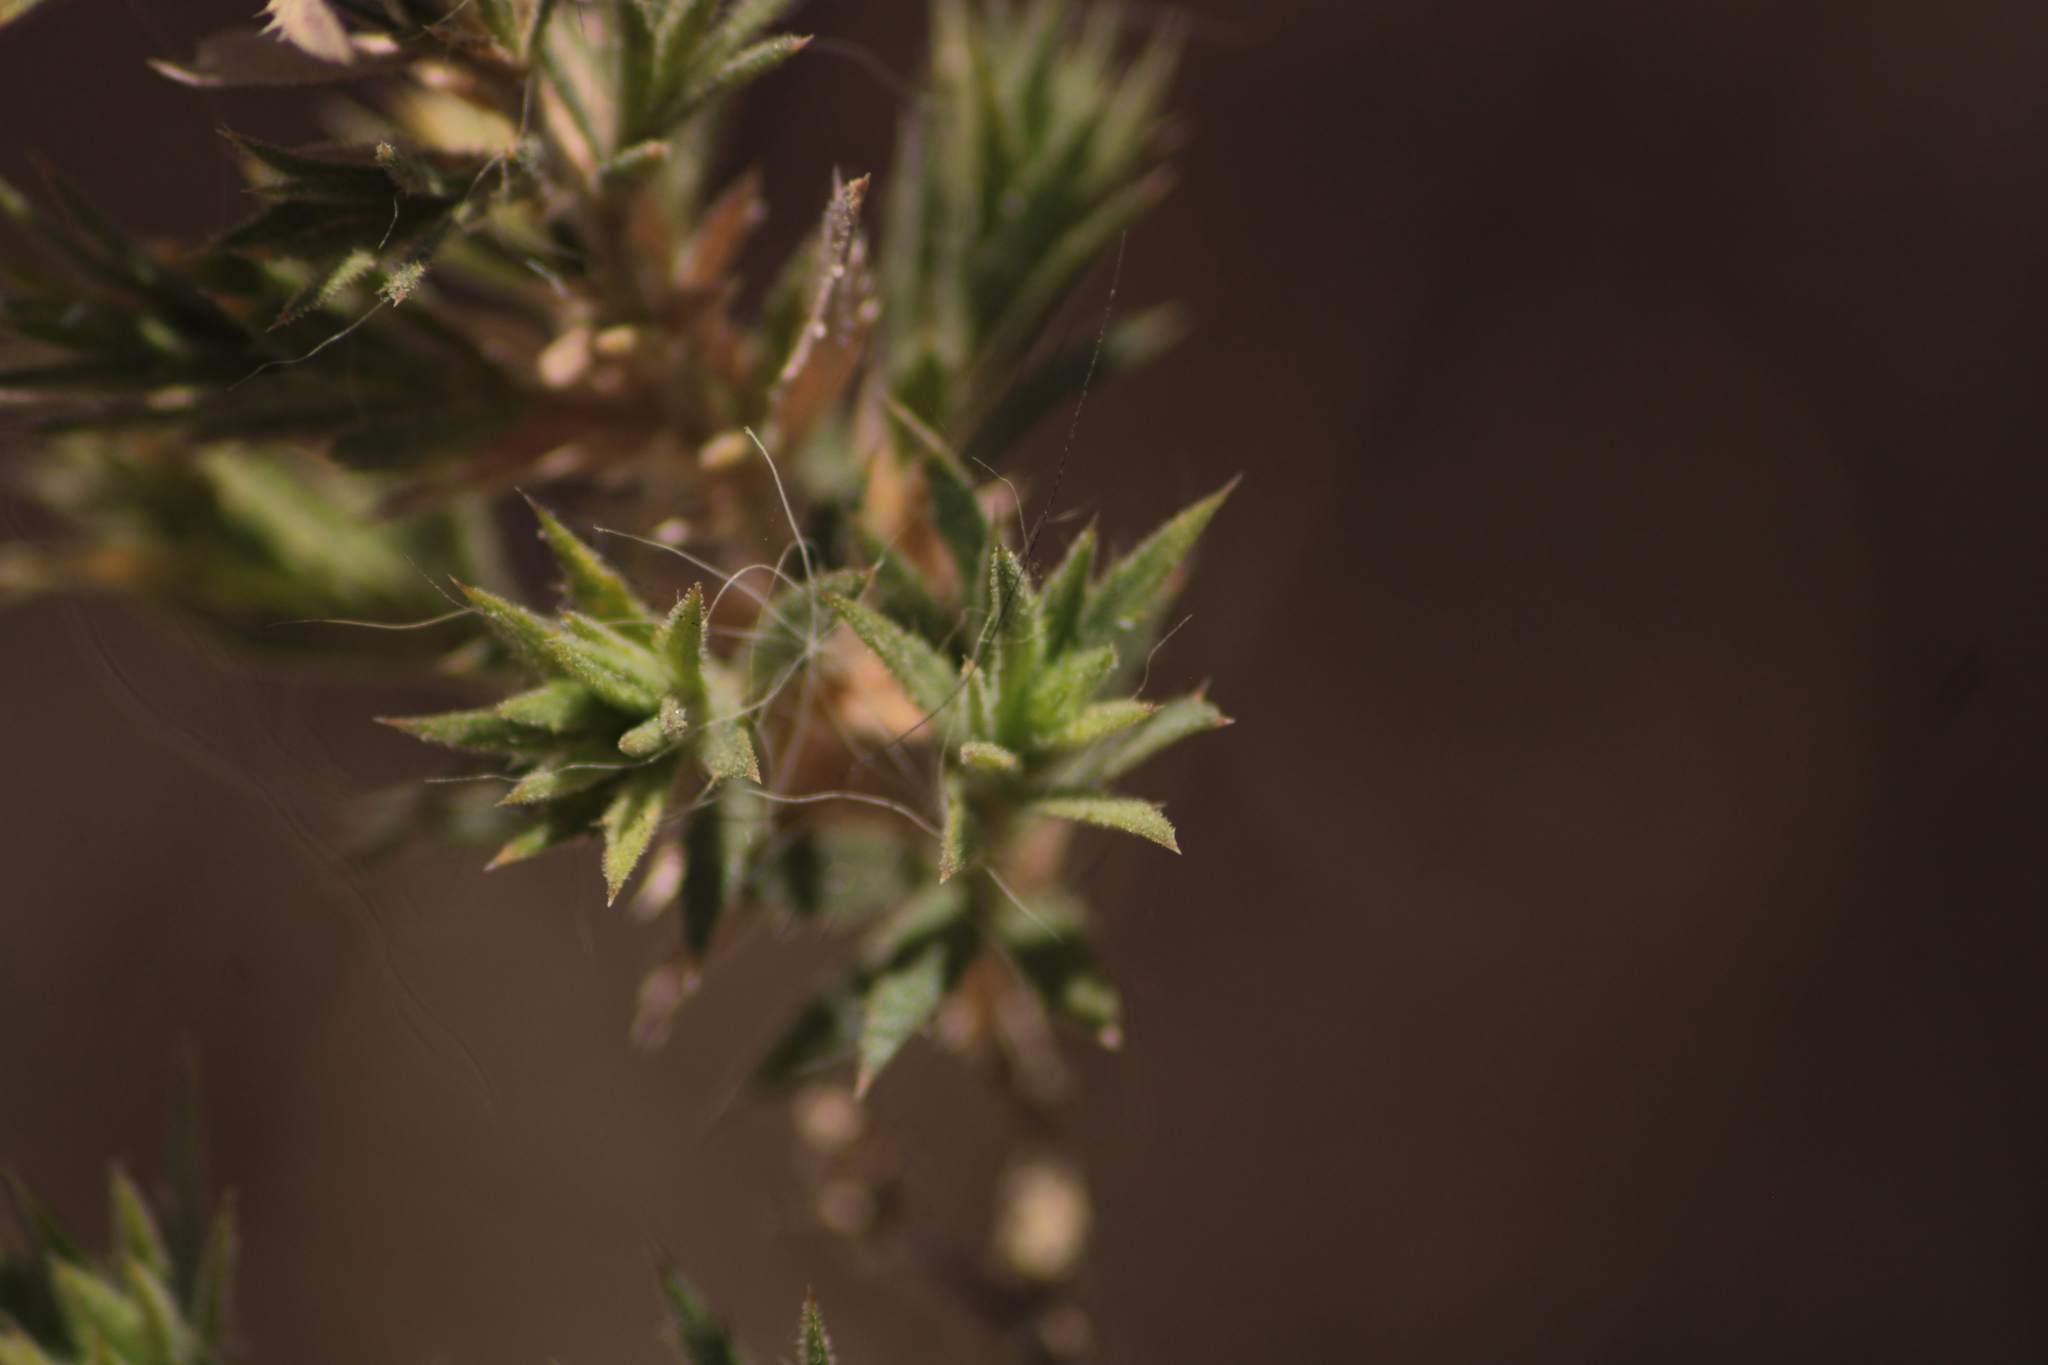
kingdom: Plantae
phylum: Tracheophyta
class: Magnoliopsida
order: Ericales
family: Polemoniaceae
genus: Loeselia
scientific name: Loeselia mexicana
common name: Mexican false calico
